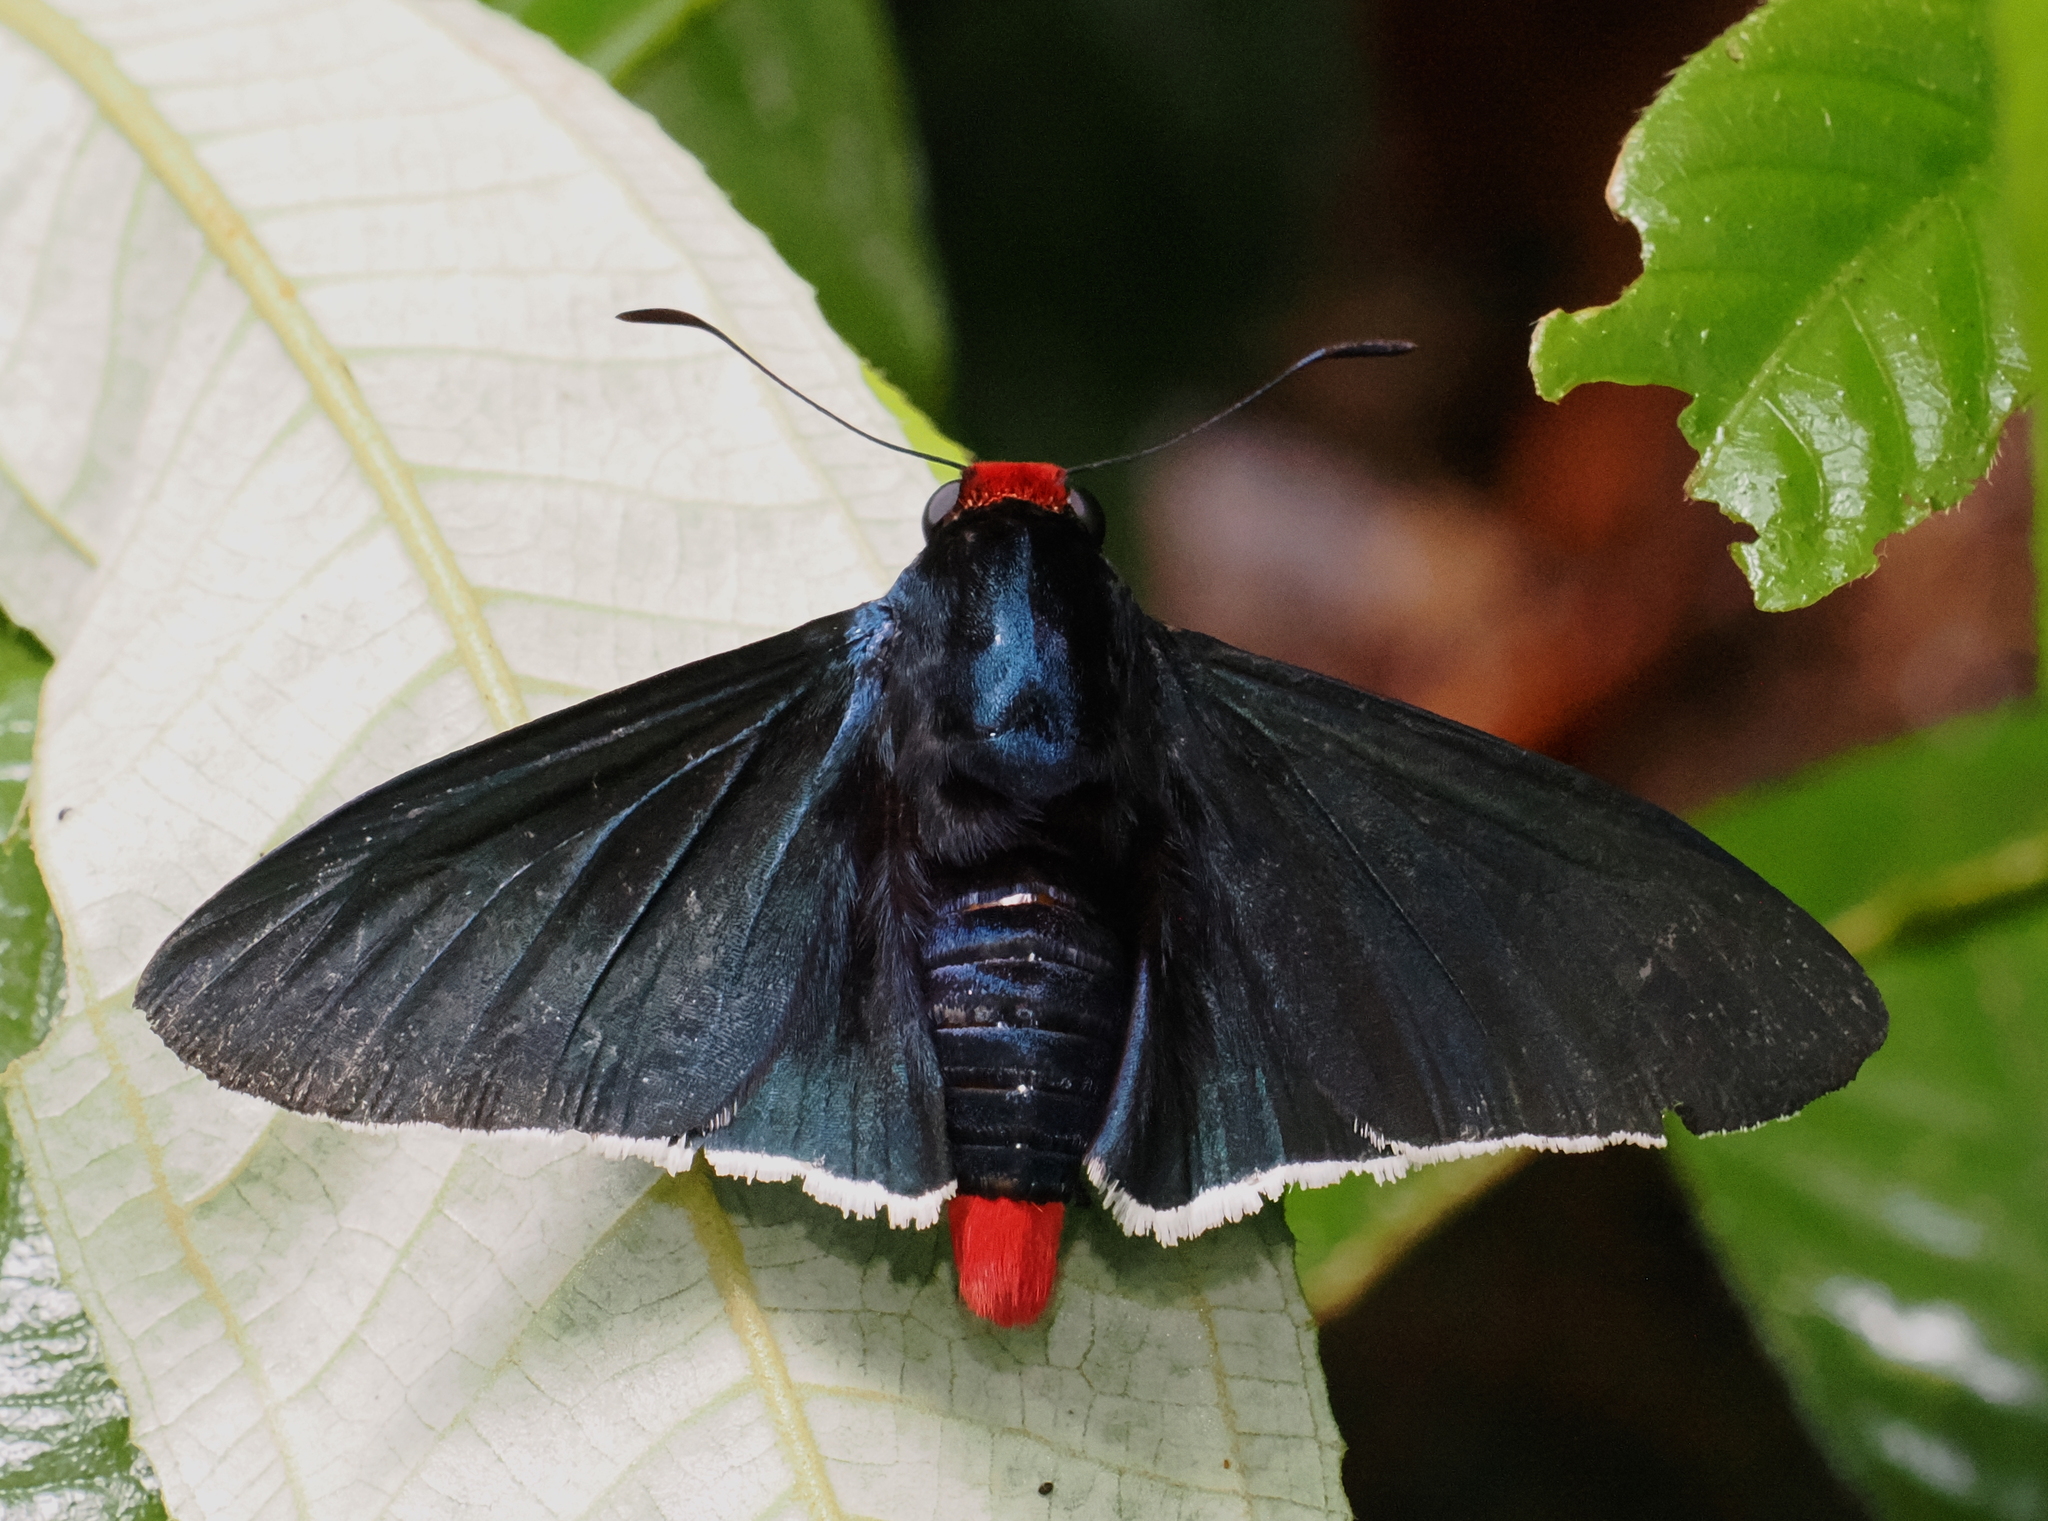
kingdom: Animalia
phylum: Arthropoda
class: Insecta
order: Lepidoptera
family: Hesperiidae
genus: Elbella
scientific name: Elbella intersecta
